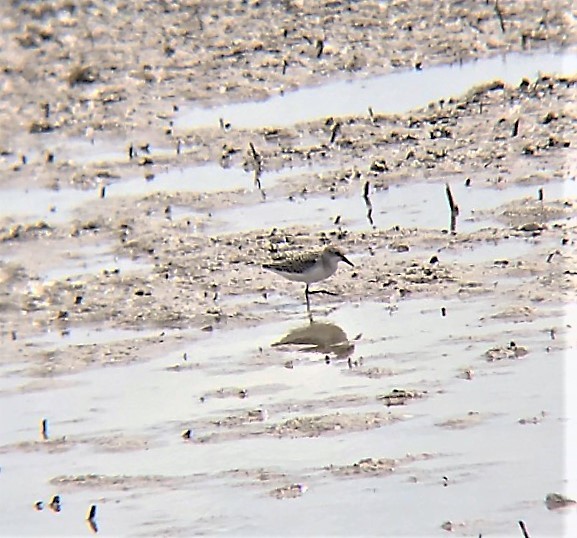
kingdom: Animalia
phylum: Chordata
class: Aves
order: Charadriiformes
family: Scolopacidae
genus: Calidris
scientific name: Calidris pusilla
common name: Semipalmated sandpiper
